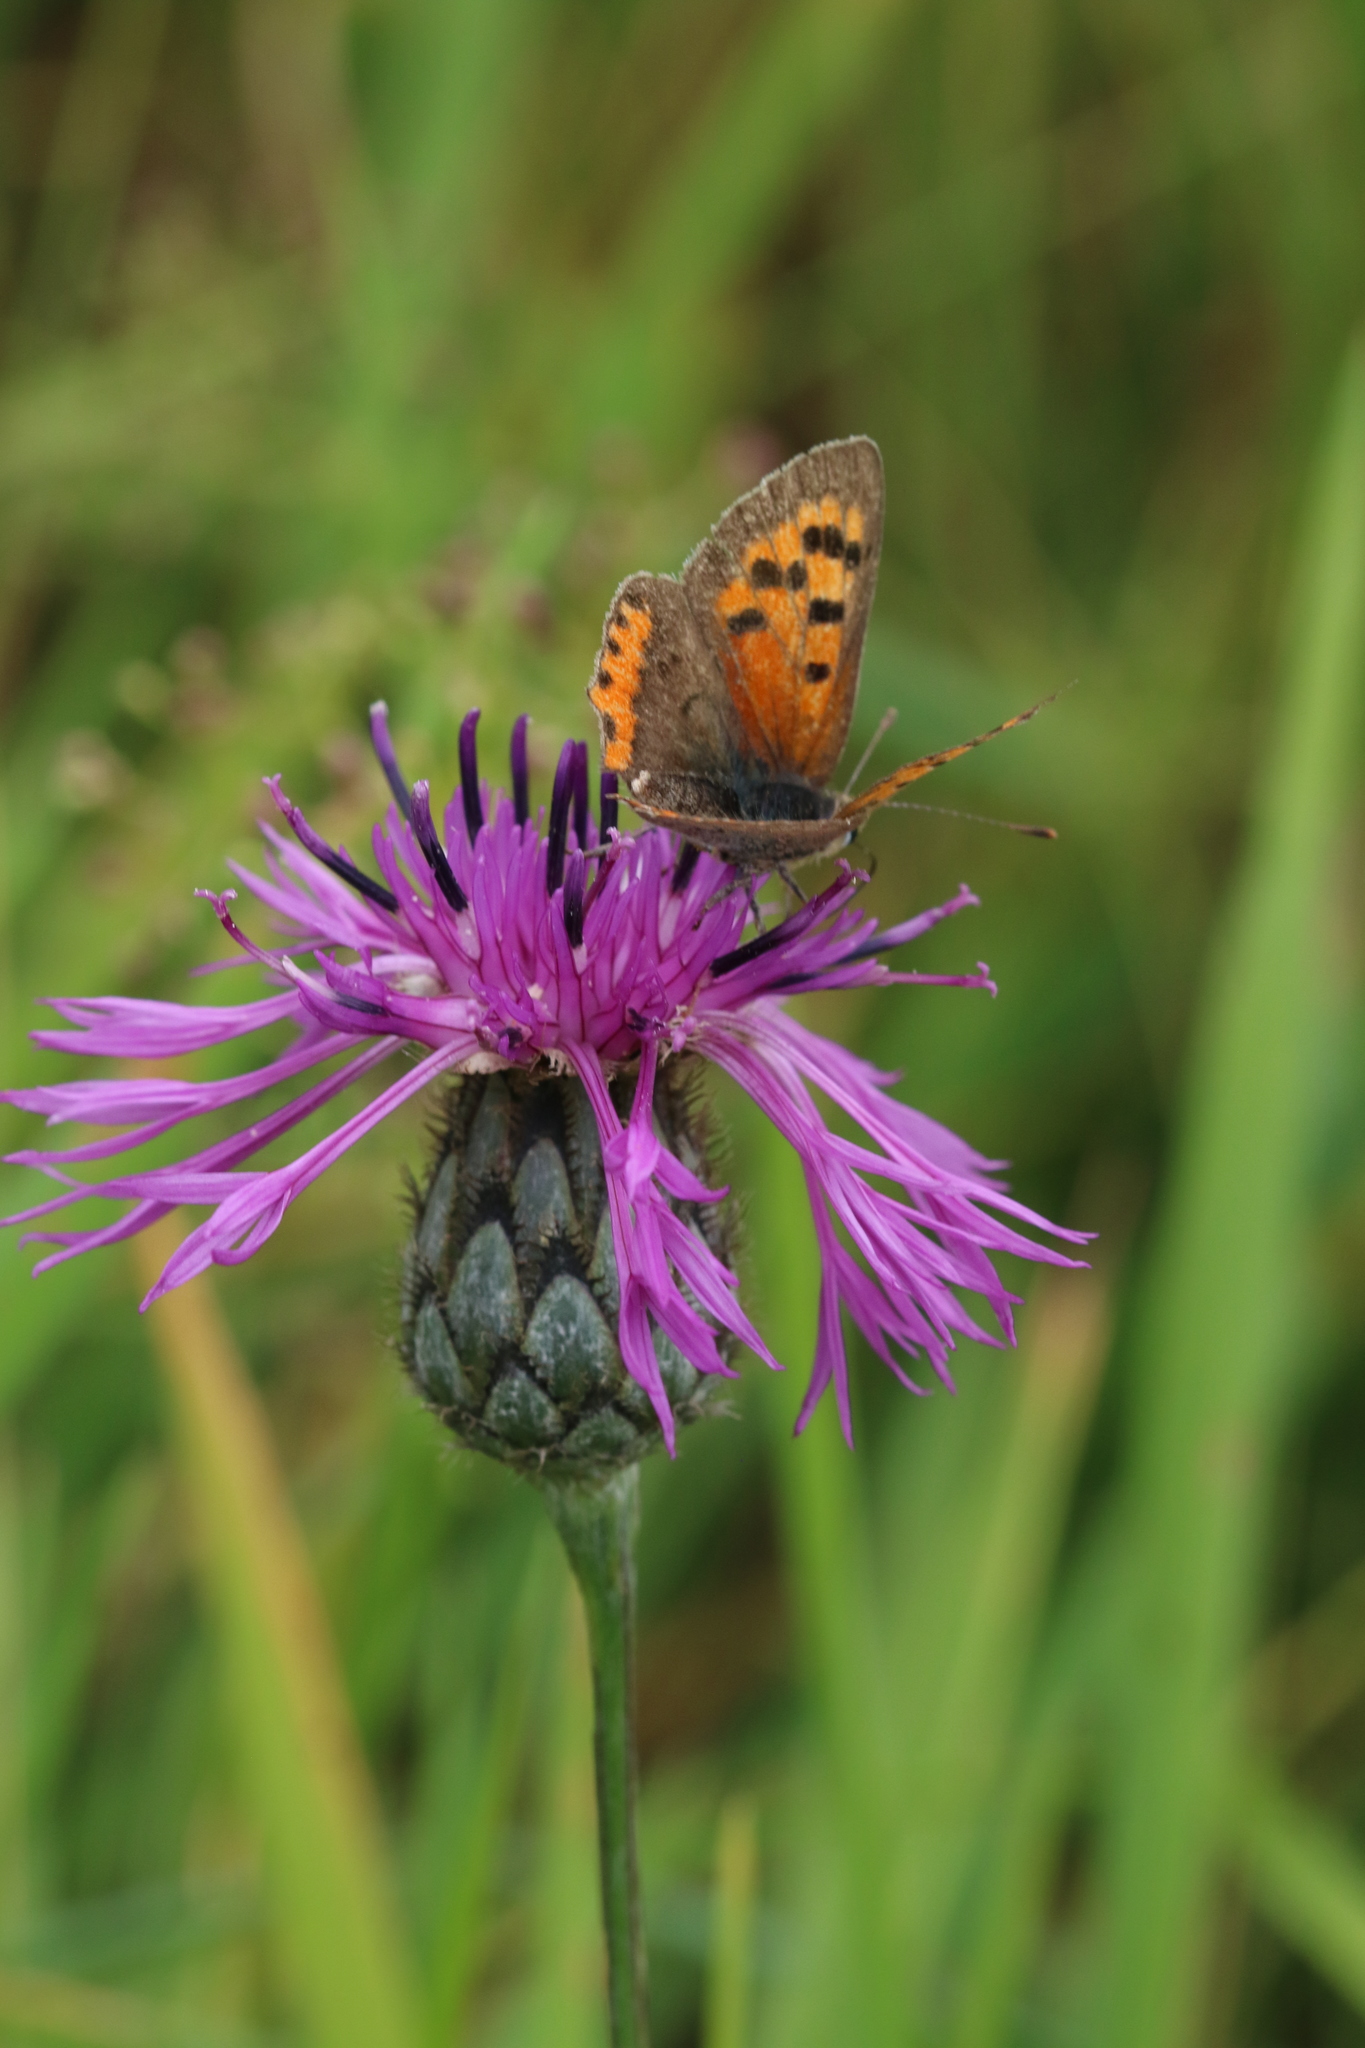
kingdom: Animalia
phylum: Arthropoda
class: Insecta
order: Lepidoptera
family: Lycaenidae
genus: Lycaena
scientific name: Lycaena phlaeas
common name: Small copper
